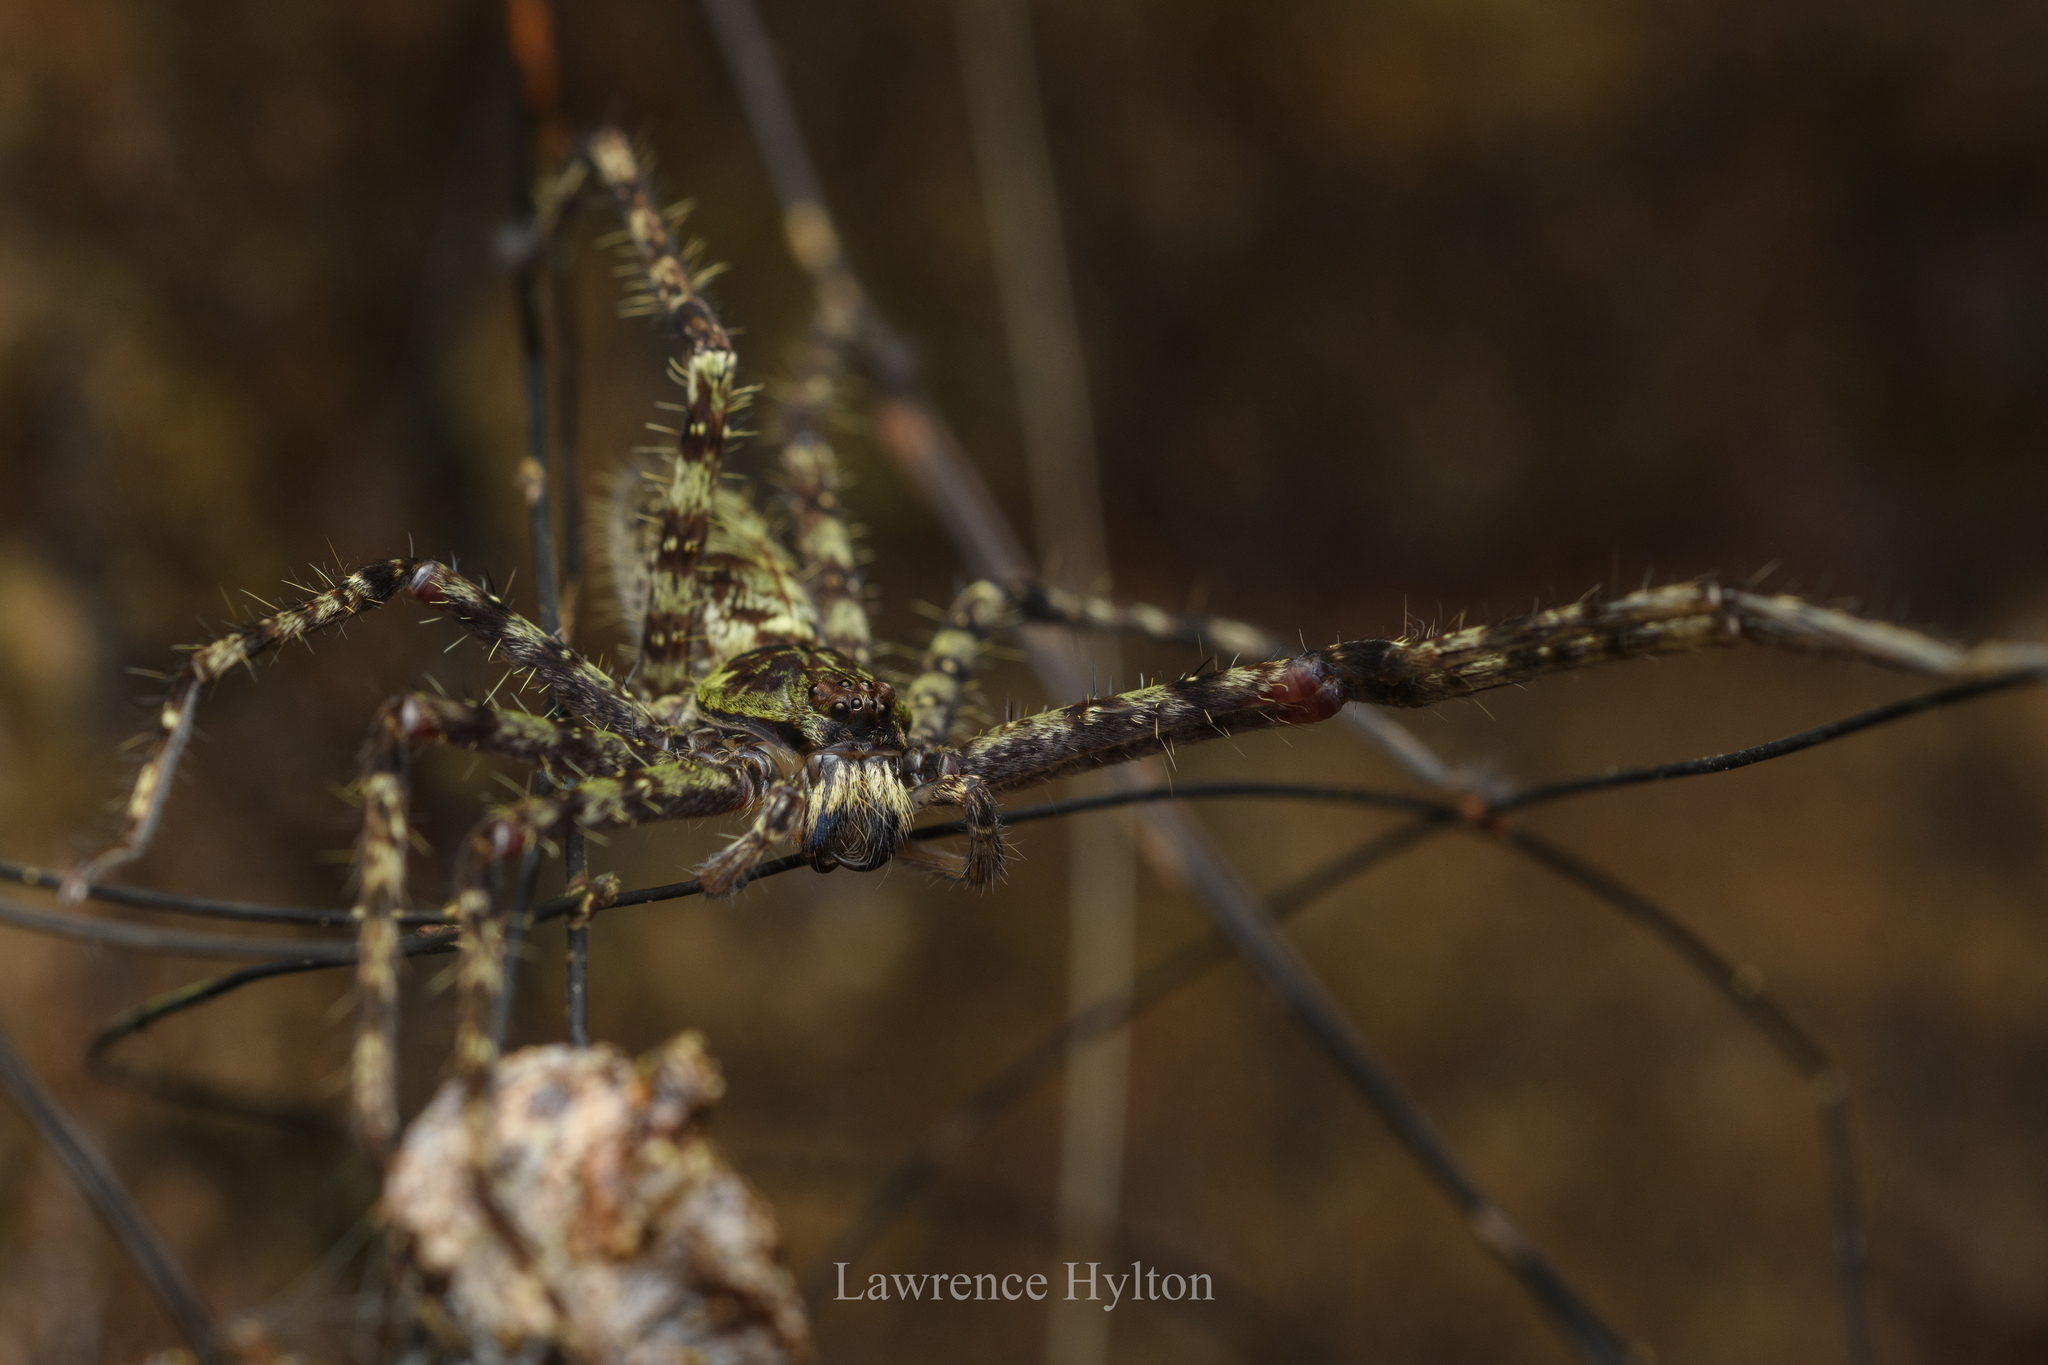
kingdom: Animalia
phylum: Arthropoda
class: Arachnida
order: Araneae
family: Sparassidae
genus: Heteropoda
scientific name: Heteropoda boiei
